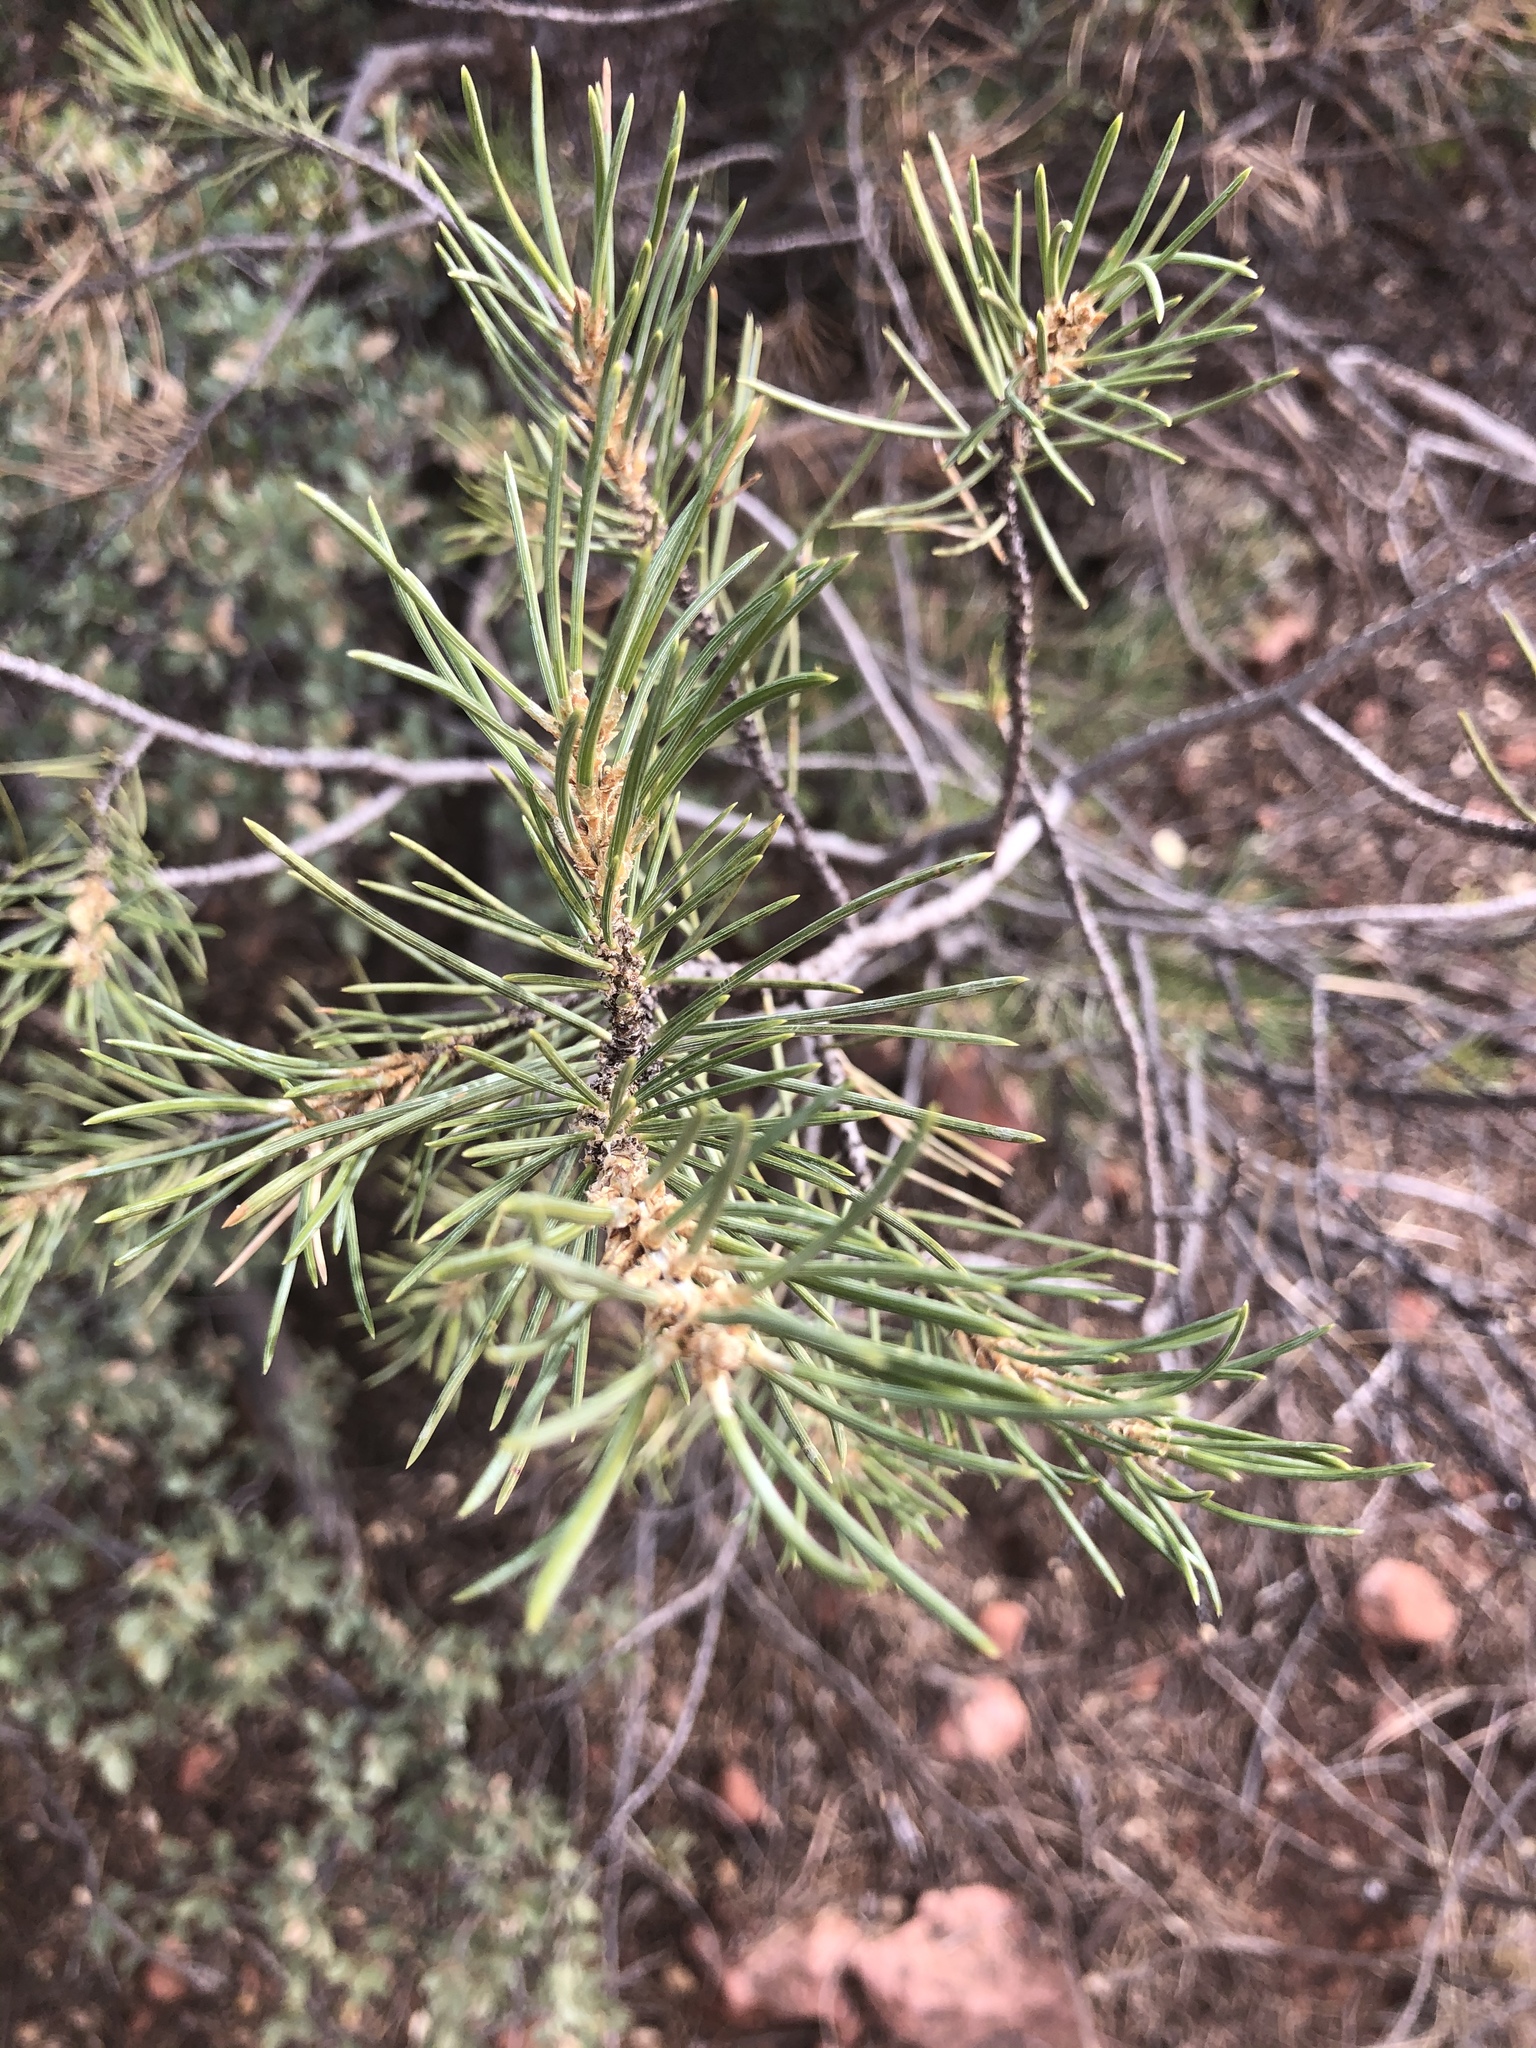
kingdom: Plantae
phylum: Tracheophyta
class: Pinopsida
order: Pinales
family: Pinaceae
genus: Pinus
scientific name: Pinus monophylla
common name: One-leaved nut pine
